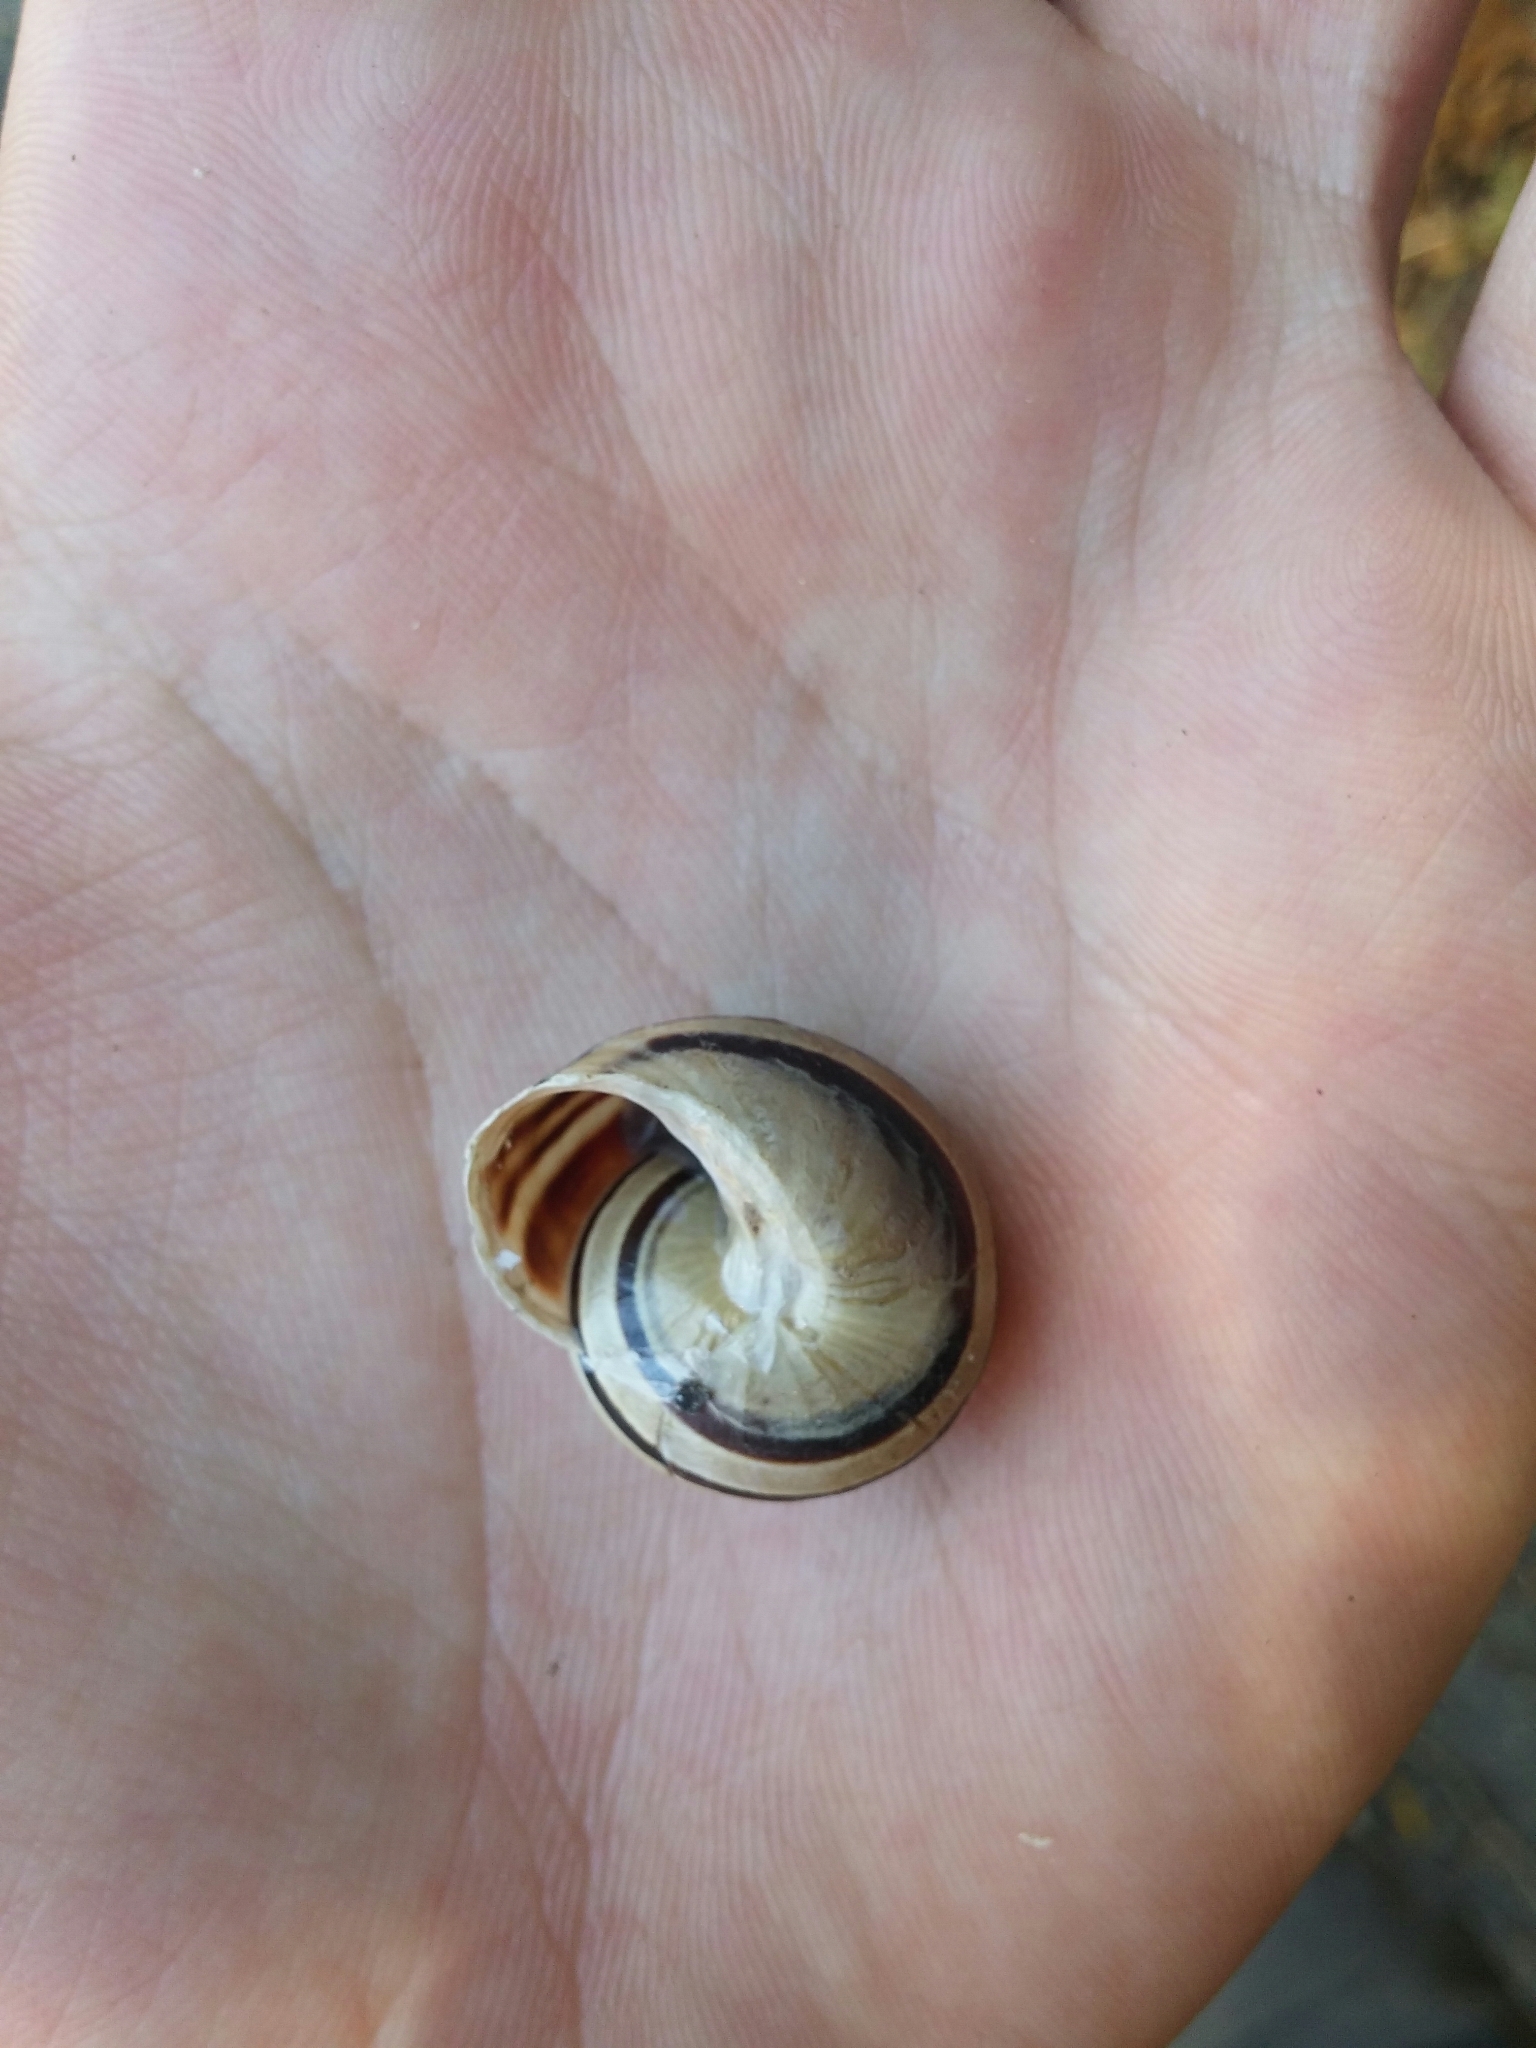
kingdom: Animalia
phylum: Mollusca
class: Gastropoda
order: Stylommatophora
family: Helicidae
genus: Eobania
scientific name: Eobania vermiculata
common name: Chocolateband snail
